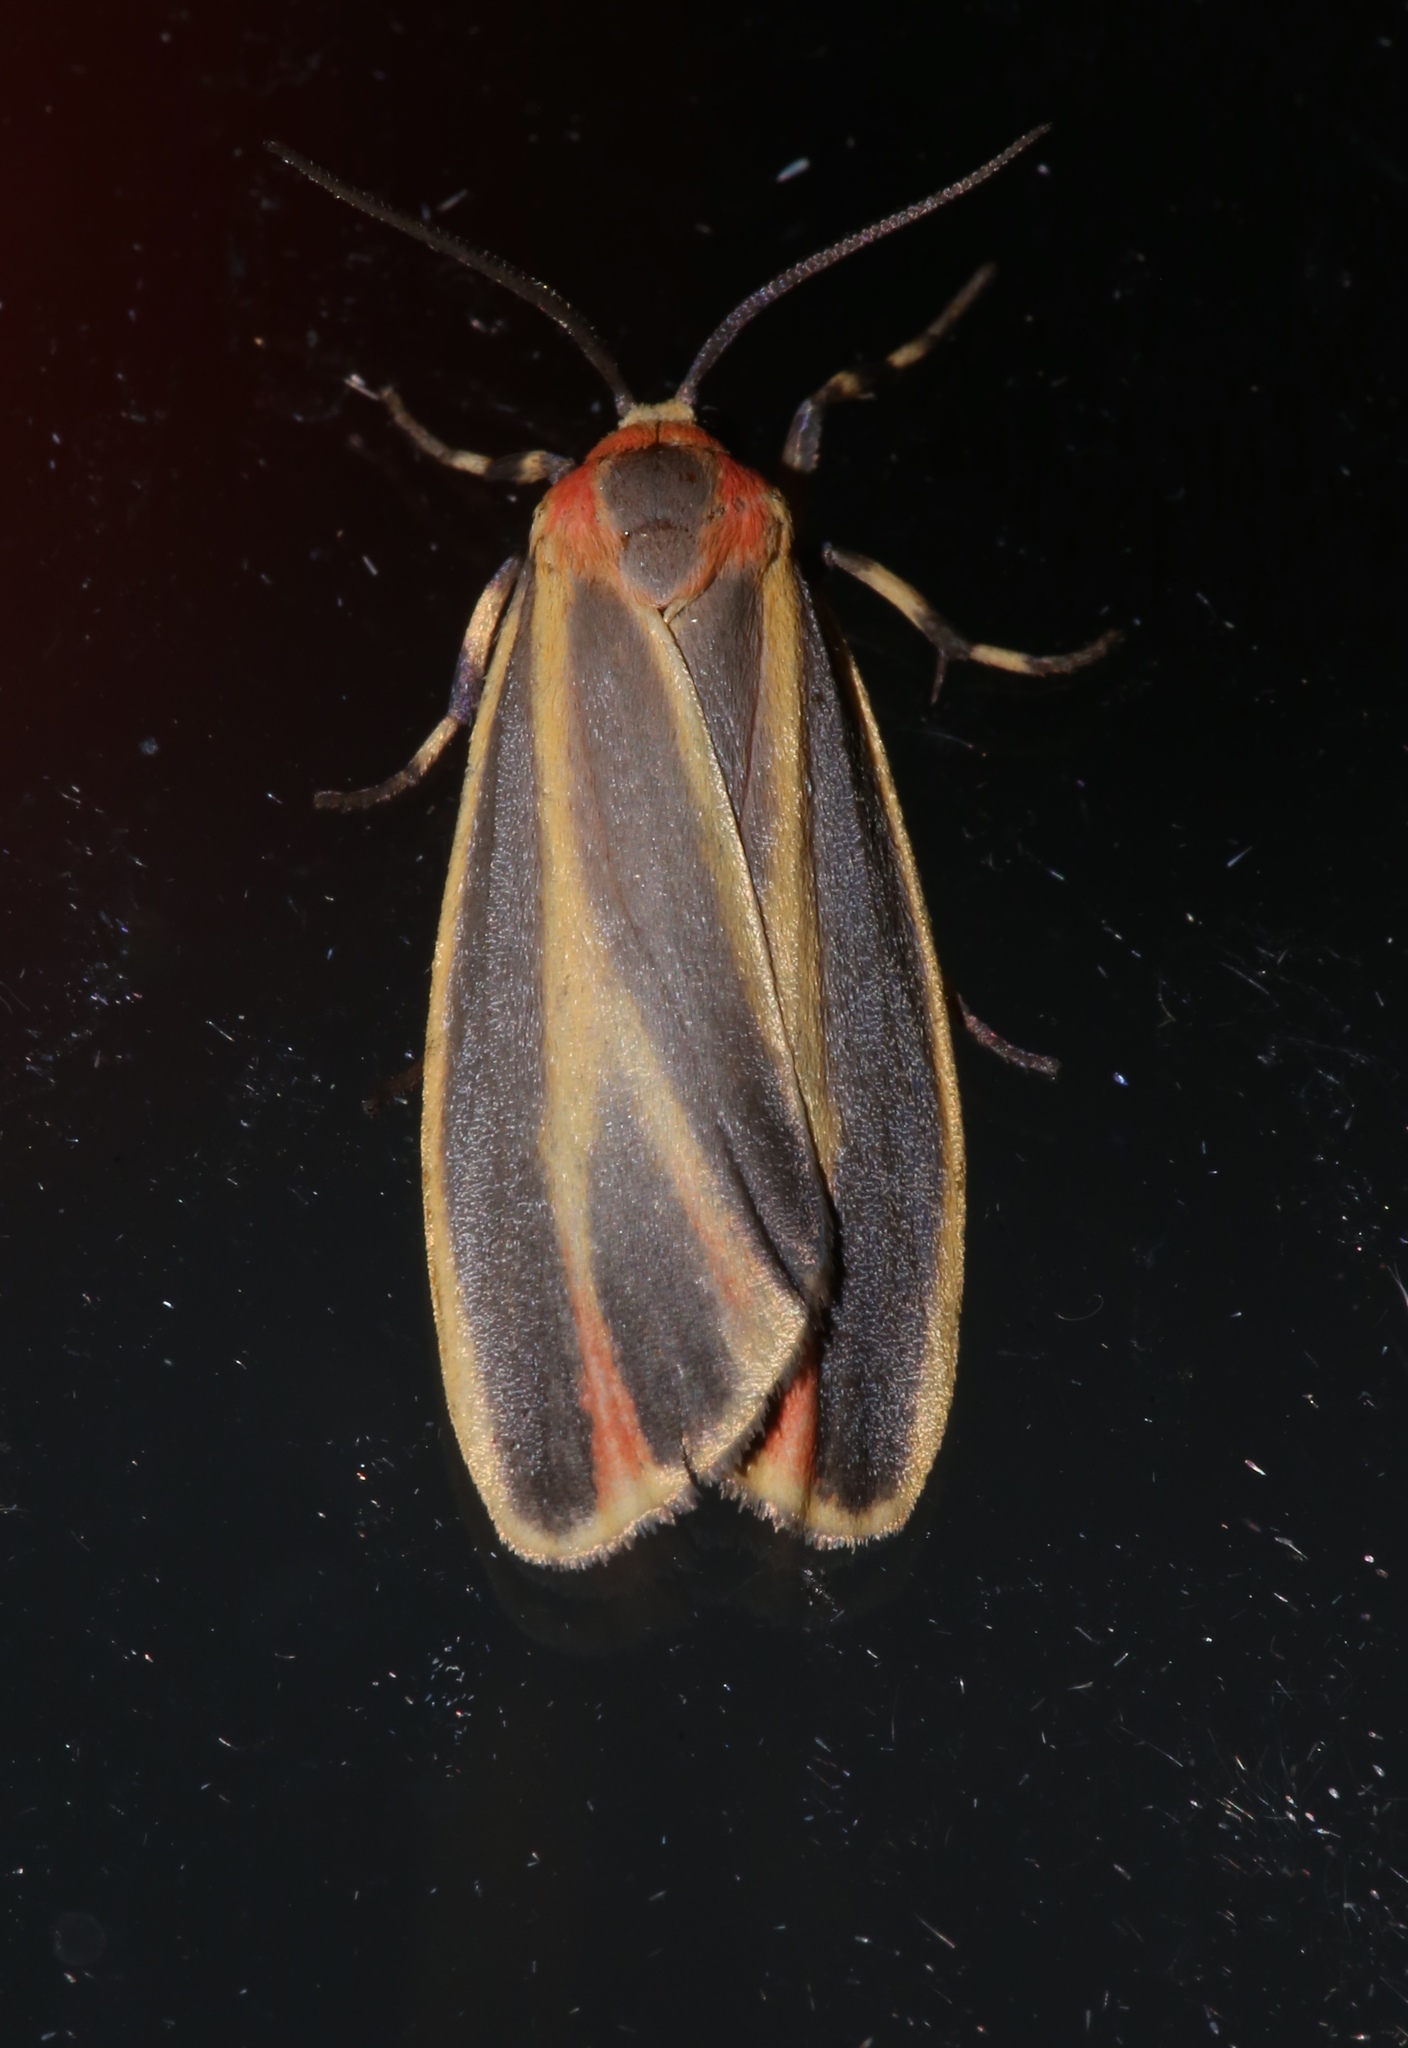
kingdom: Animalia
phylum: Arthropoda
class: Insecta
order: Lepidoptera
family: Erebidae
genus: Hypoprepia
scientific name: Hypoprepia fucosa
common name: Painted lichen moth
